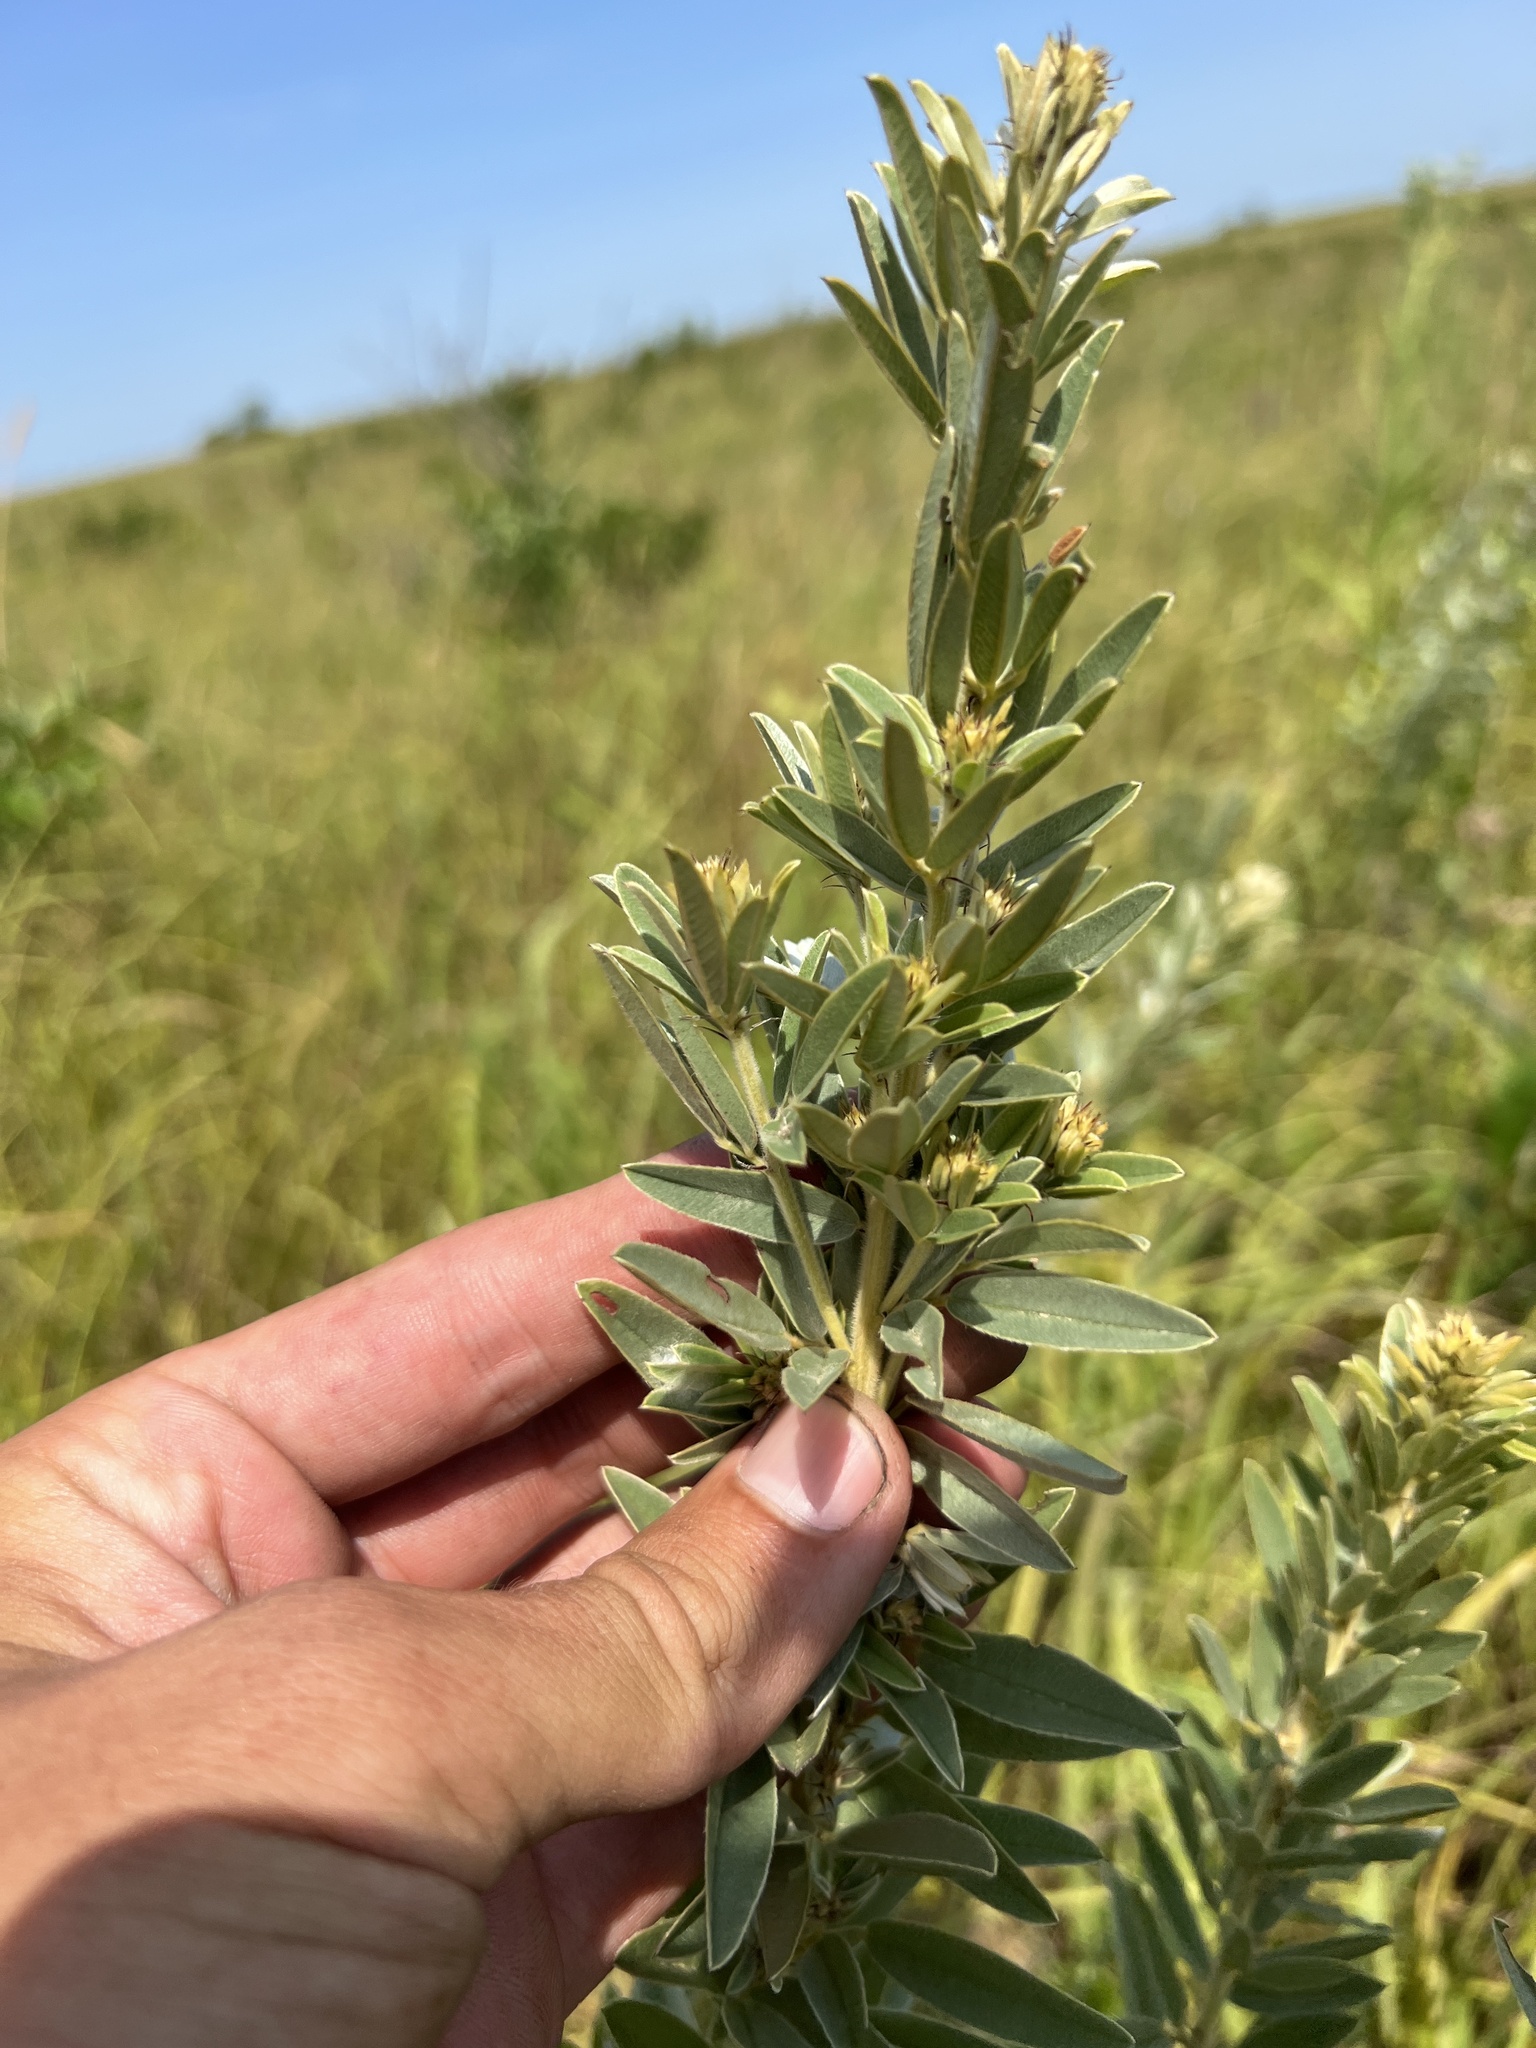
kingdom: Plantae
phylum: Tracheophyta
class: Magnoliopsida
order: Fabales
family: Fabaceae
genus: Lespedeza
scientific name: Lespedeza capitata
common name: Dusty clover
